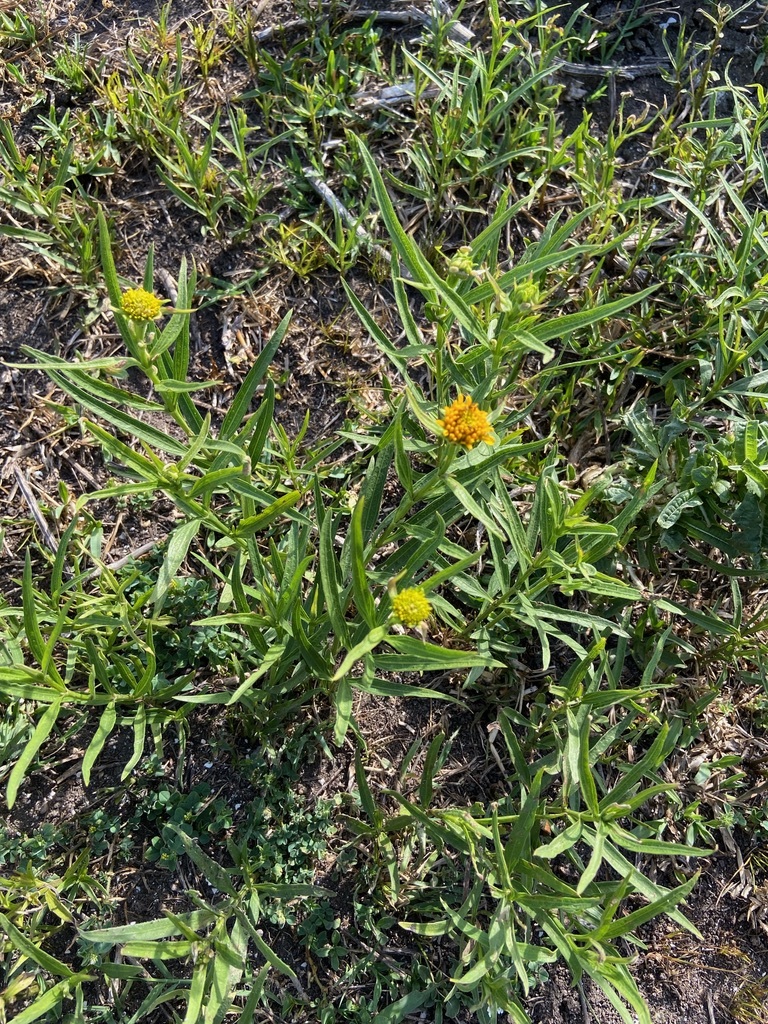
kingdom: Plantae
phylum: Tracheophyta
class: Magnoliopsida
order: Asterales
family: Asteraceae
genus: Pascalia
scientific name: Pascalia glauca
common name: Beach creeping oxeye
